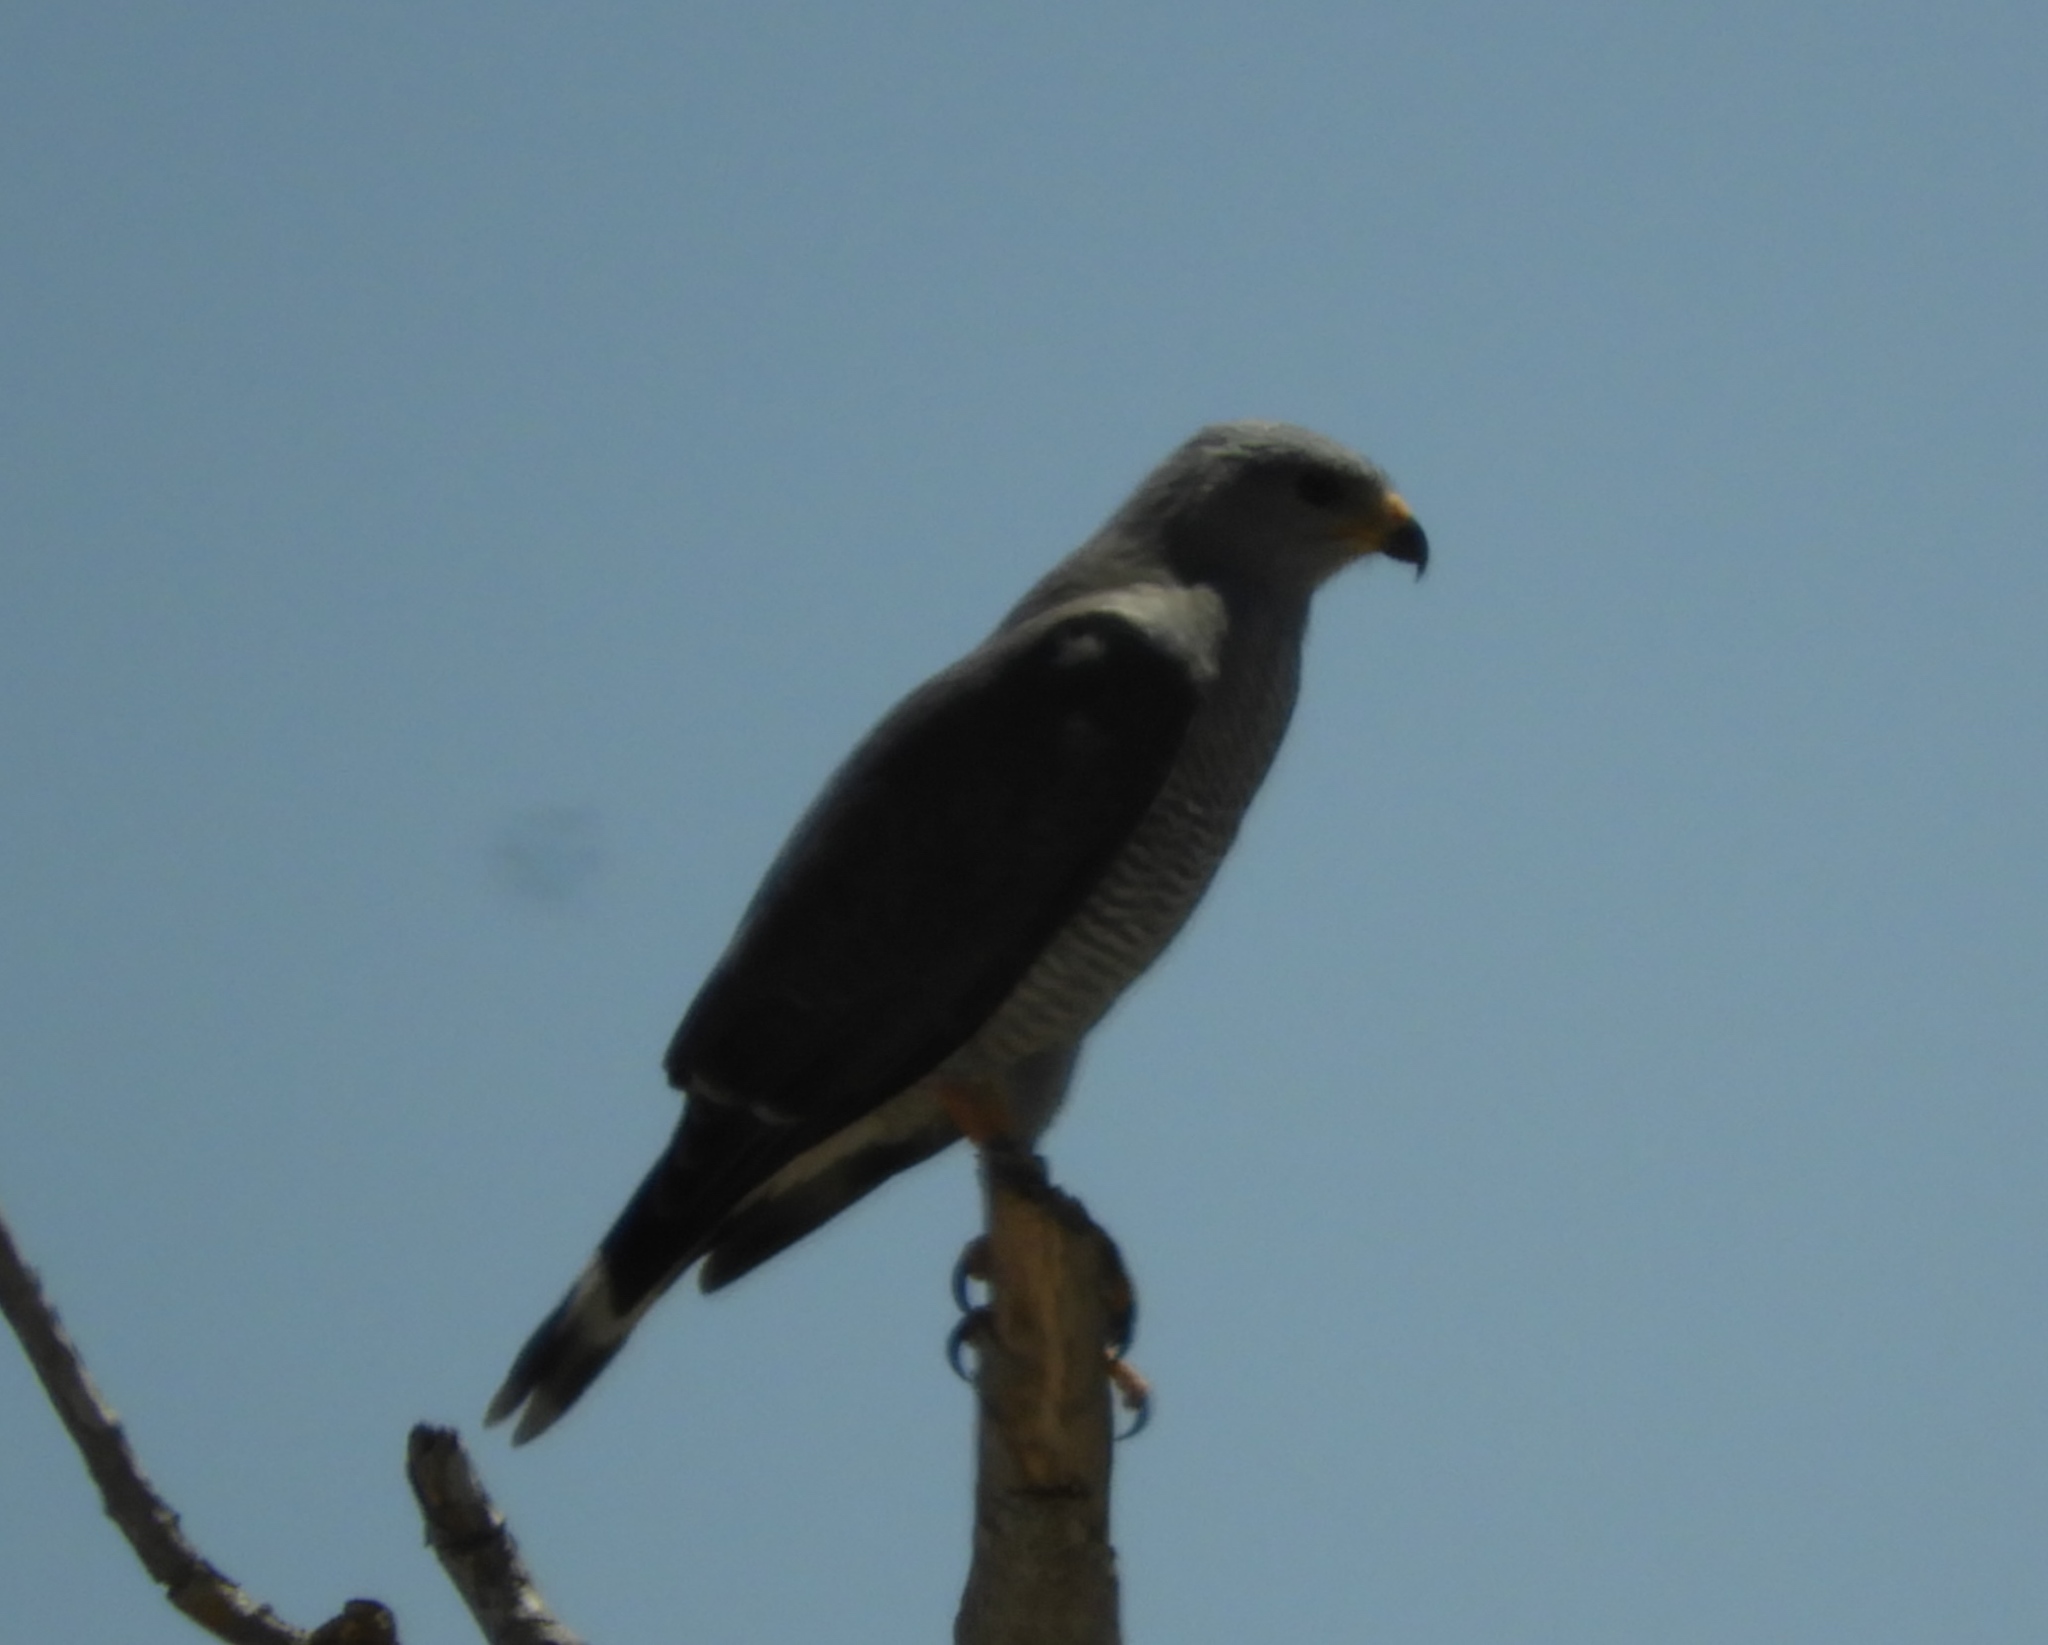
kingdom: Animalia
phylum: Chordata
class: Aves
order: Accipitriformes
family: Accipitridae
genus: Buteo
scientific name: Buteo nitidus
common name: Grey-lined hawk
